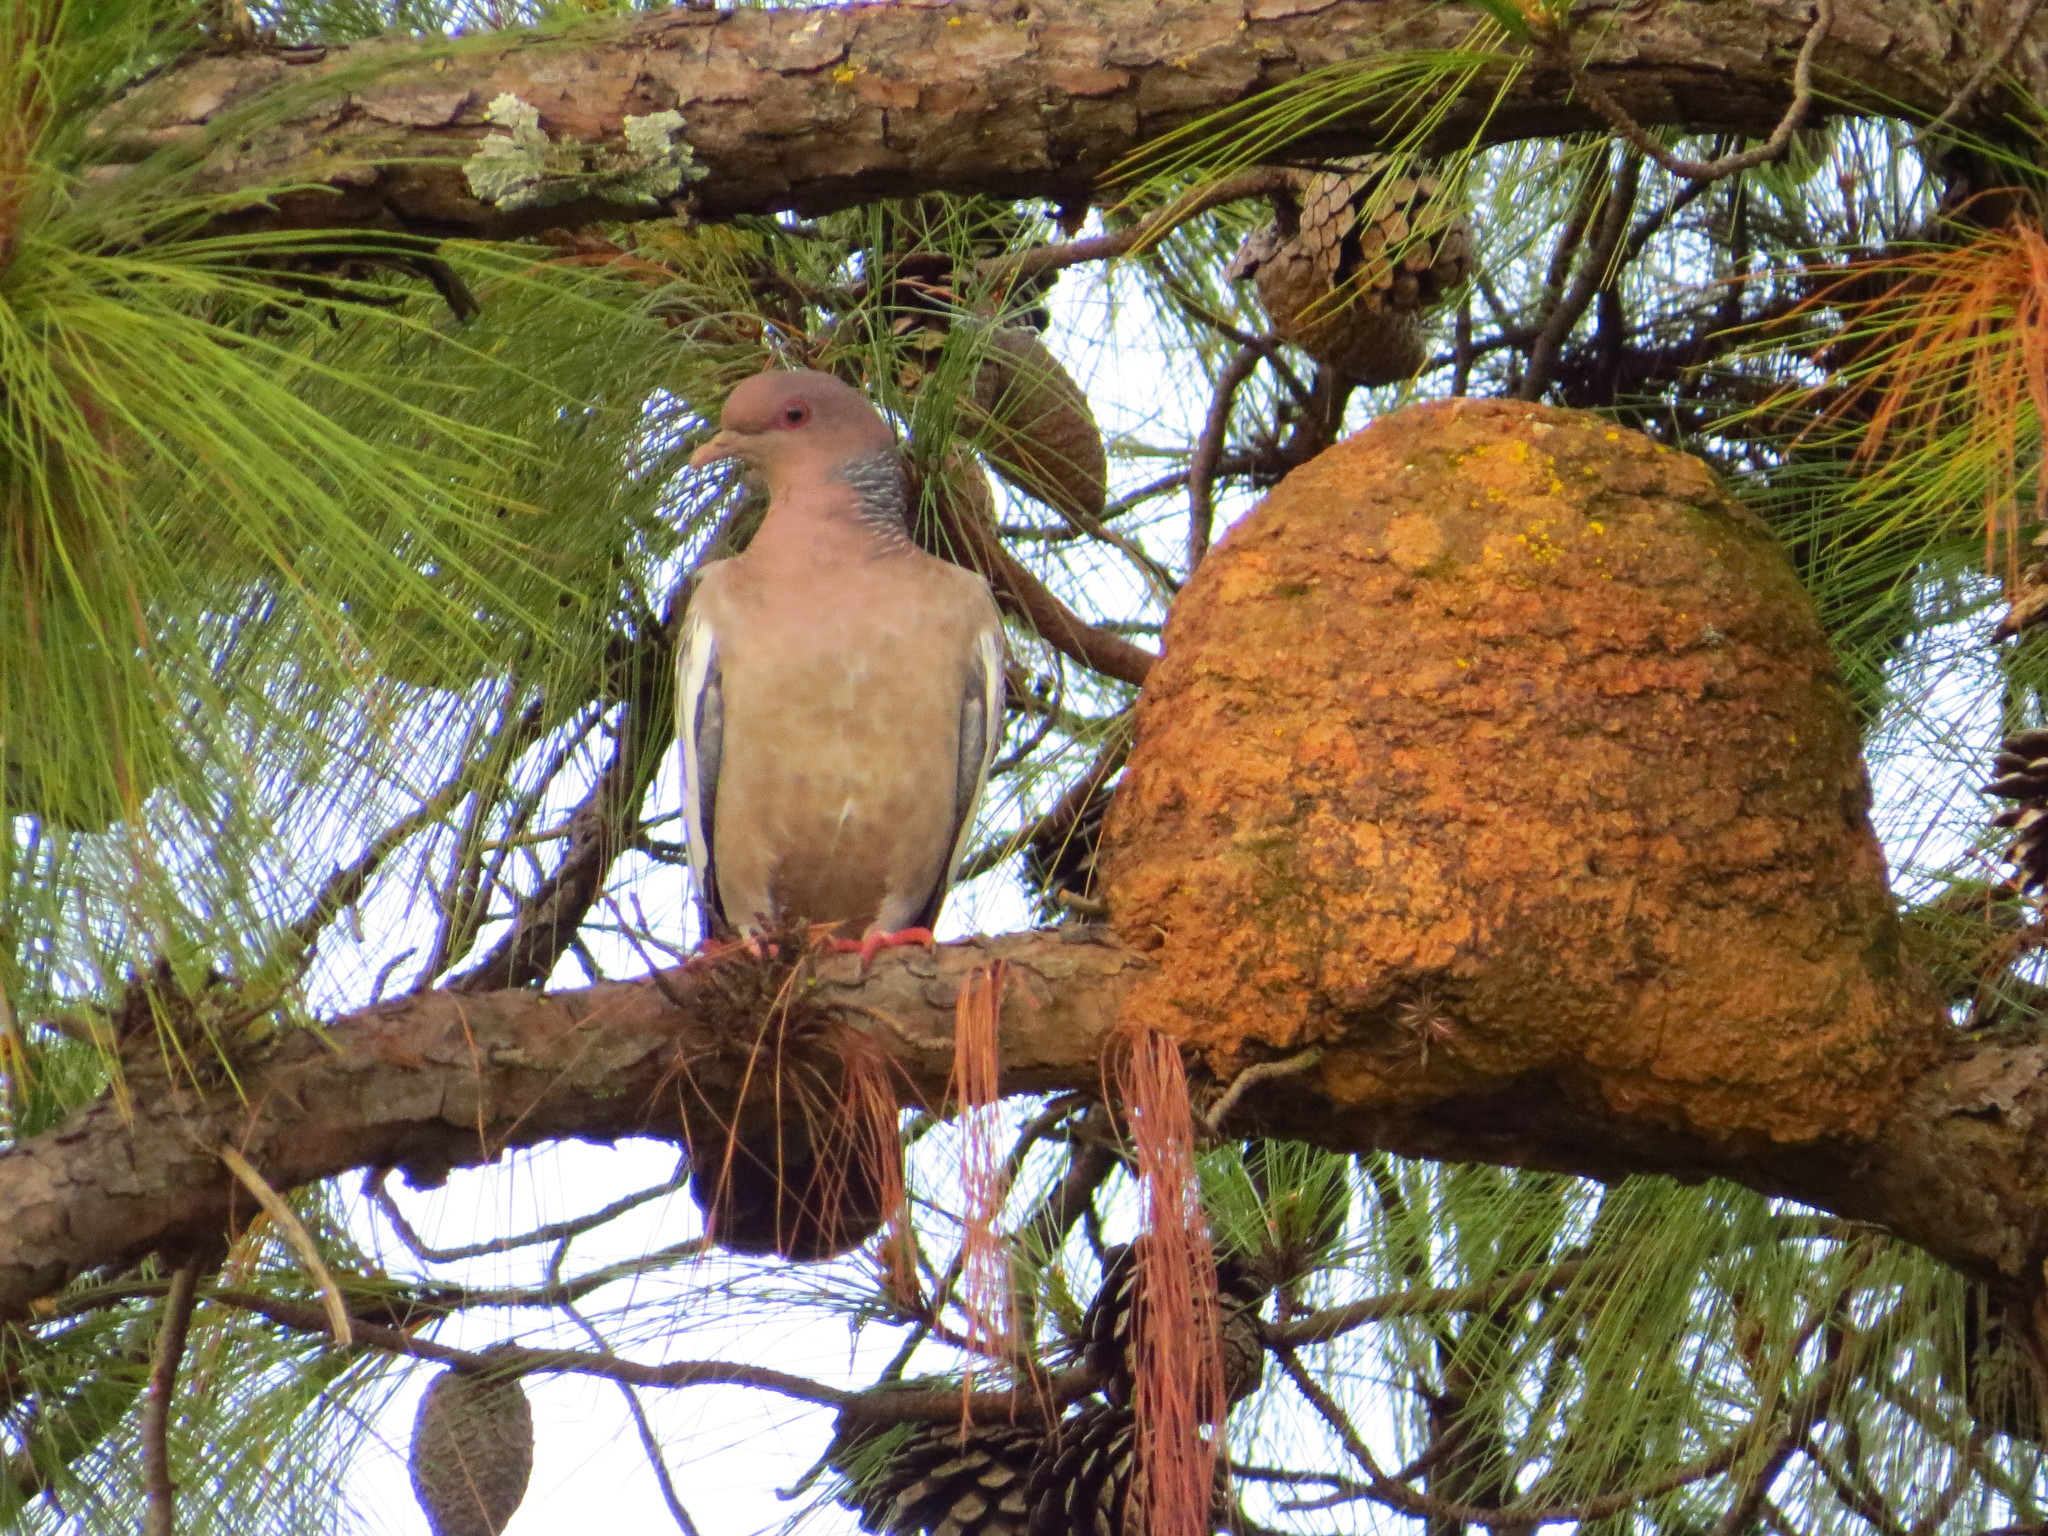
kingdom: Animalia
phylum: Chordata
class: Aves
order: Columbiformes
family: Columbidae
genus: Patagioenas
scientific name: Patagioenas picazuro
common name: Picazuro pigeon
